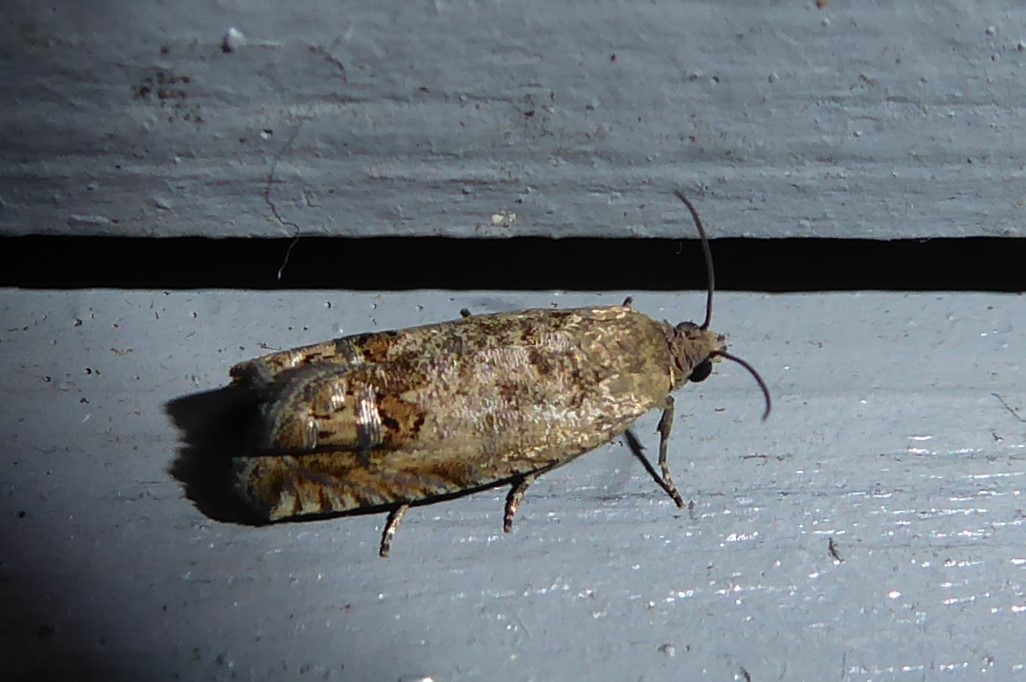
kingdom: Animalia
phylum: Arthropoda
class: Insecta
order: Lepidoptera
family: Tortricidae
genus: Cydia
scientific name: Cydia succedana
